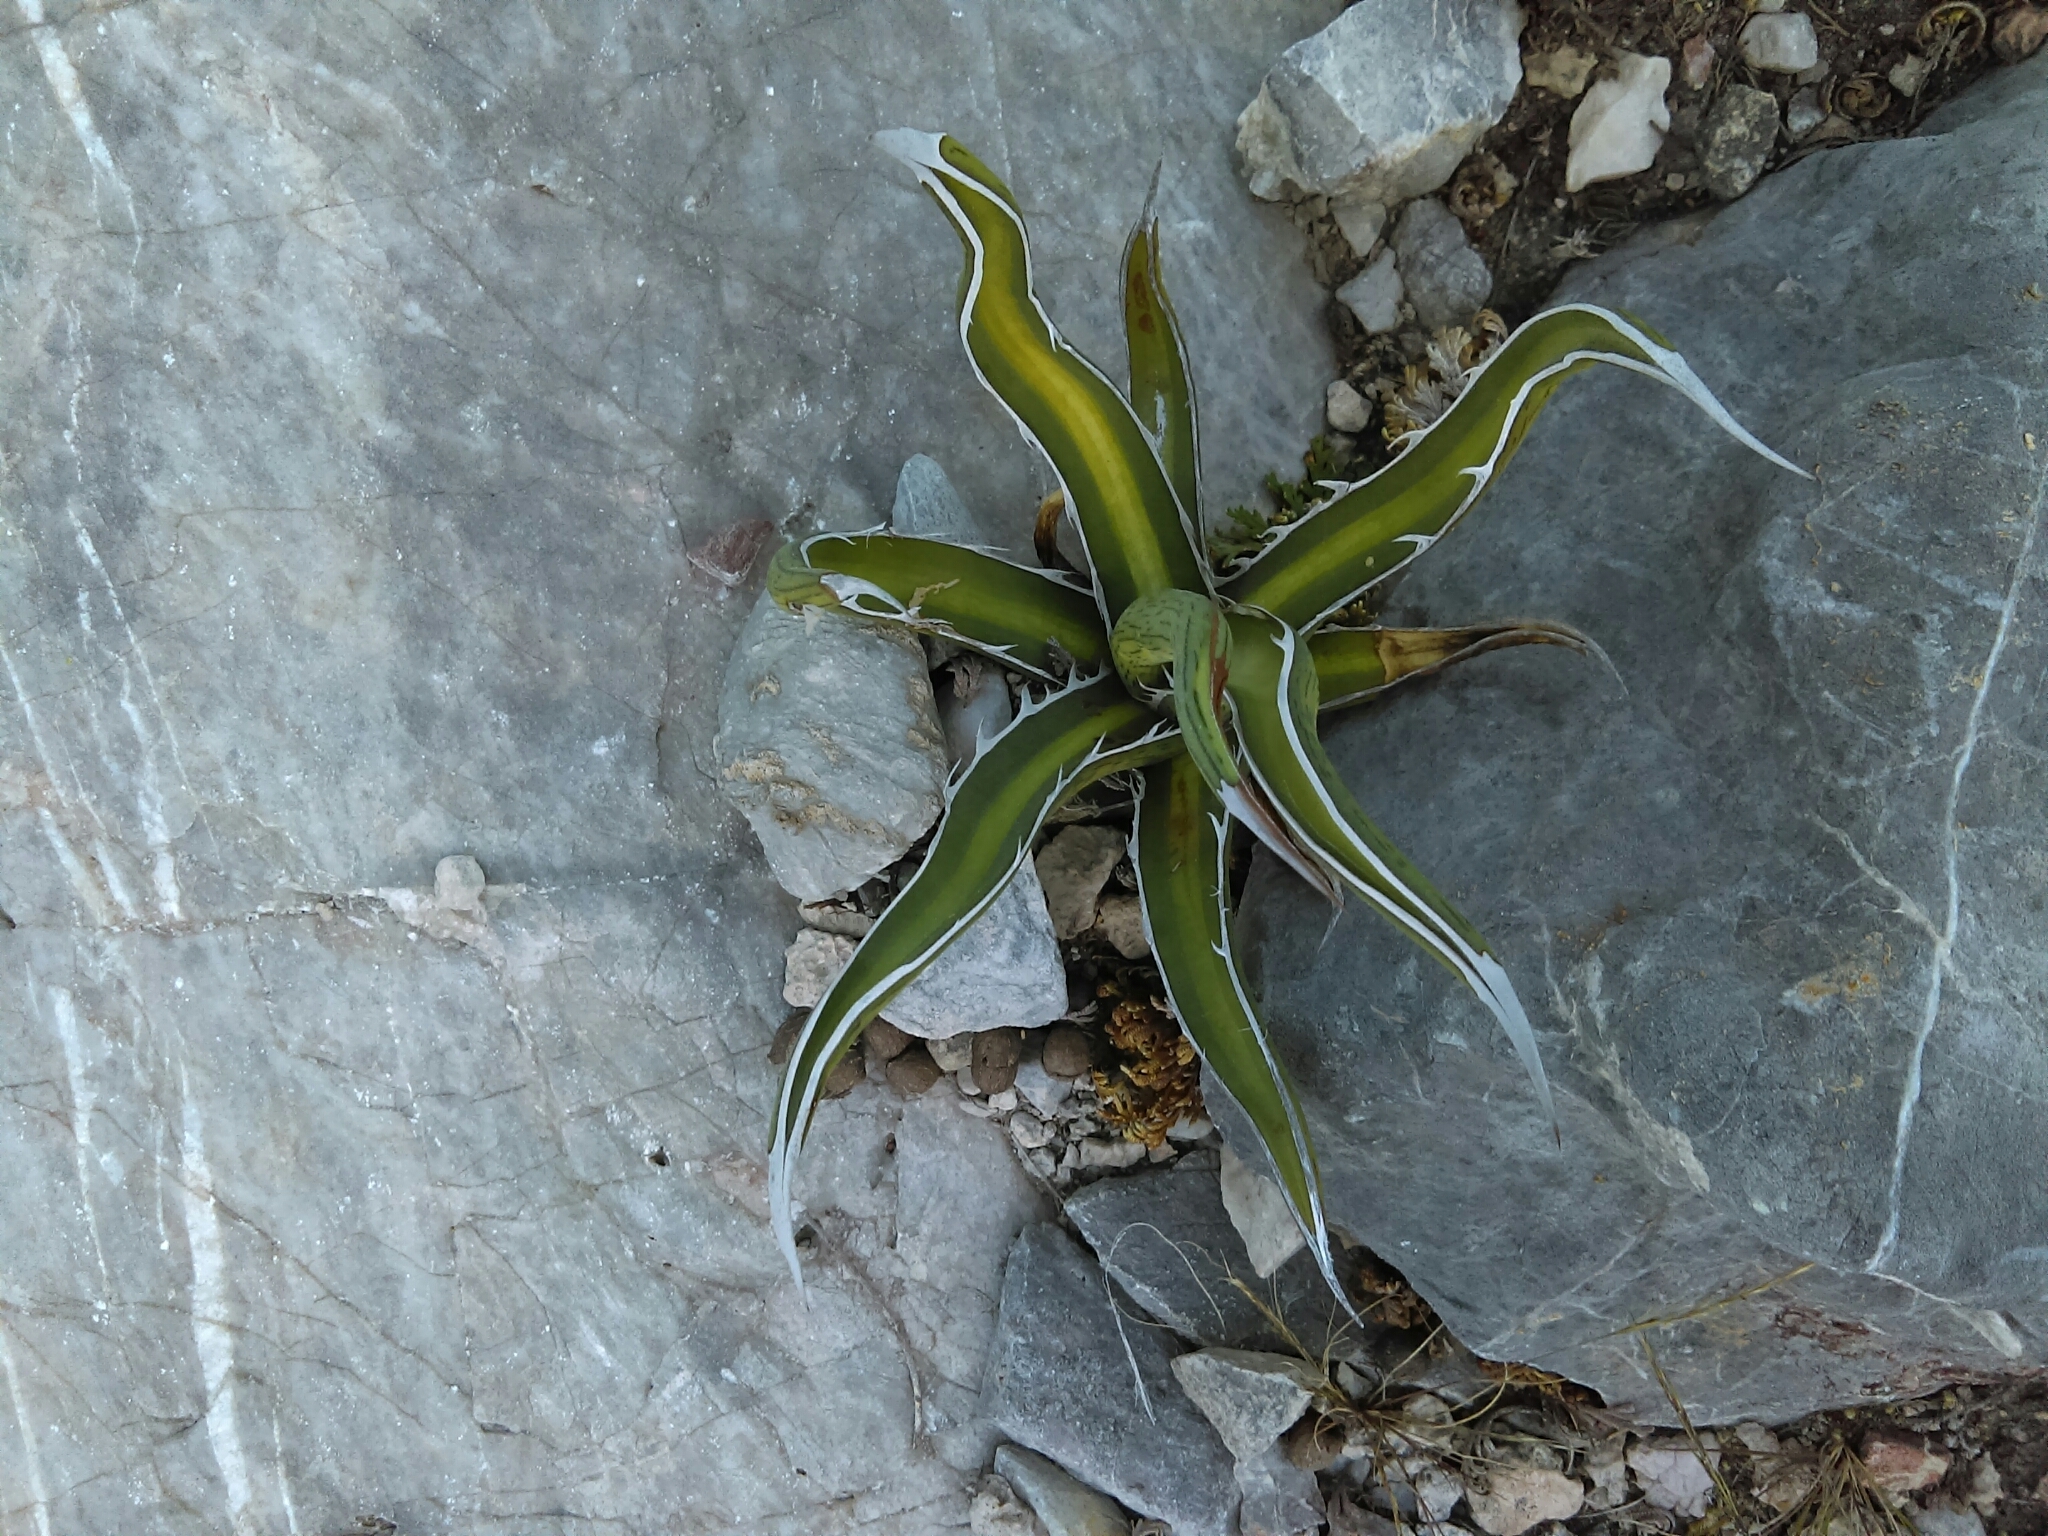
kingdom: Plantae
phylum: Tracheophyta
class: Liliopsida
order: Asparagales
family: Asparagaceae
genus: Agave
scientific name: Agave albomarginata
